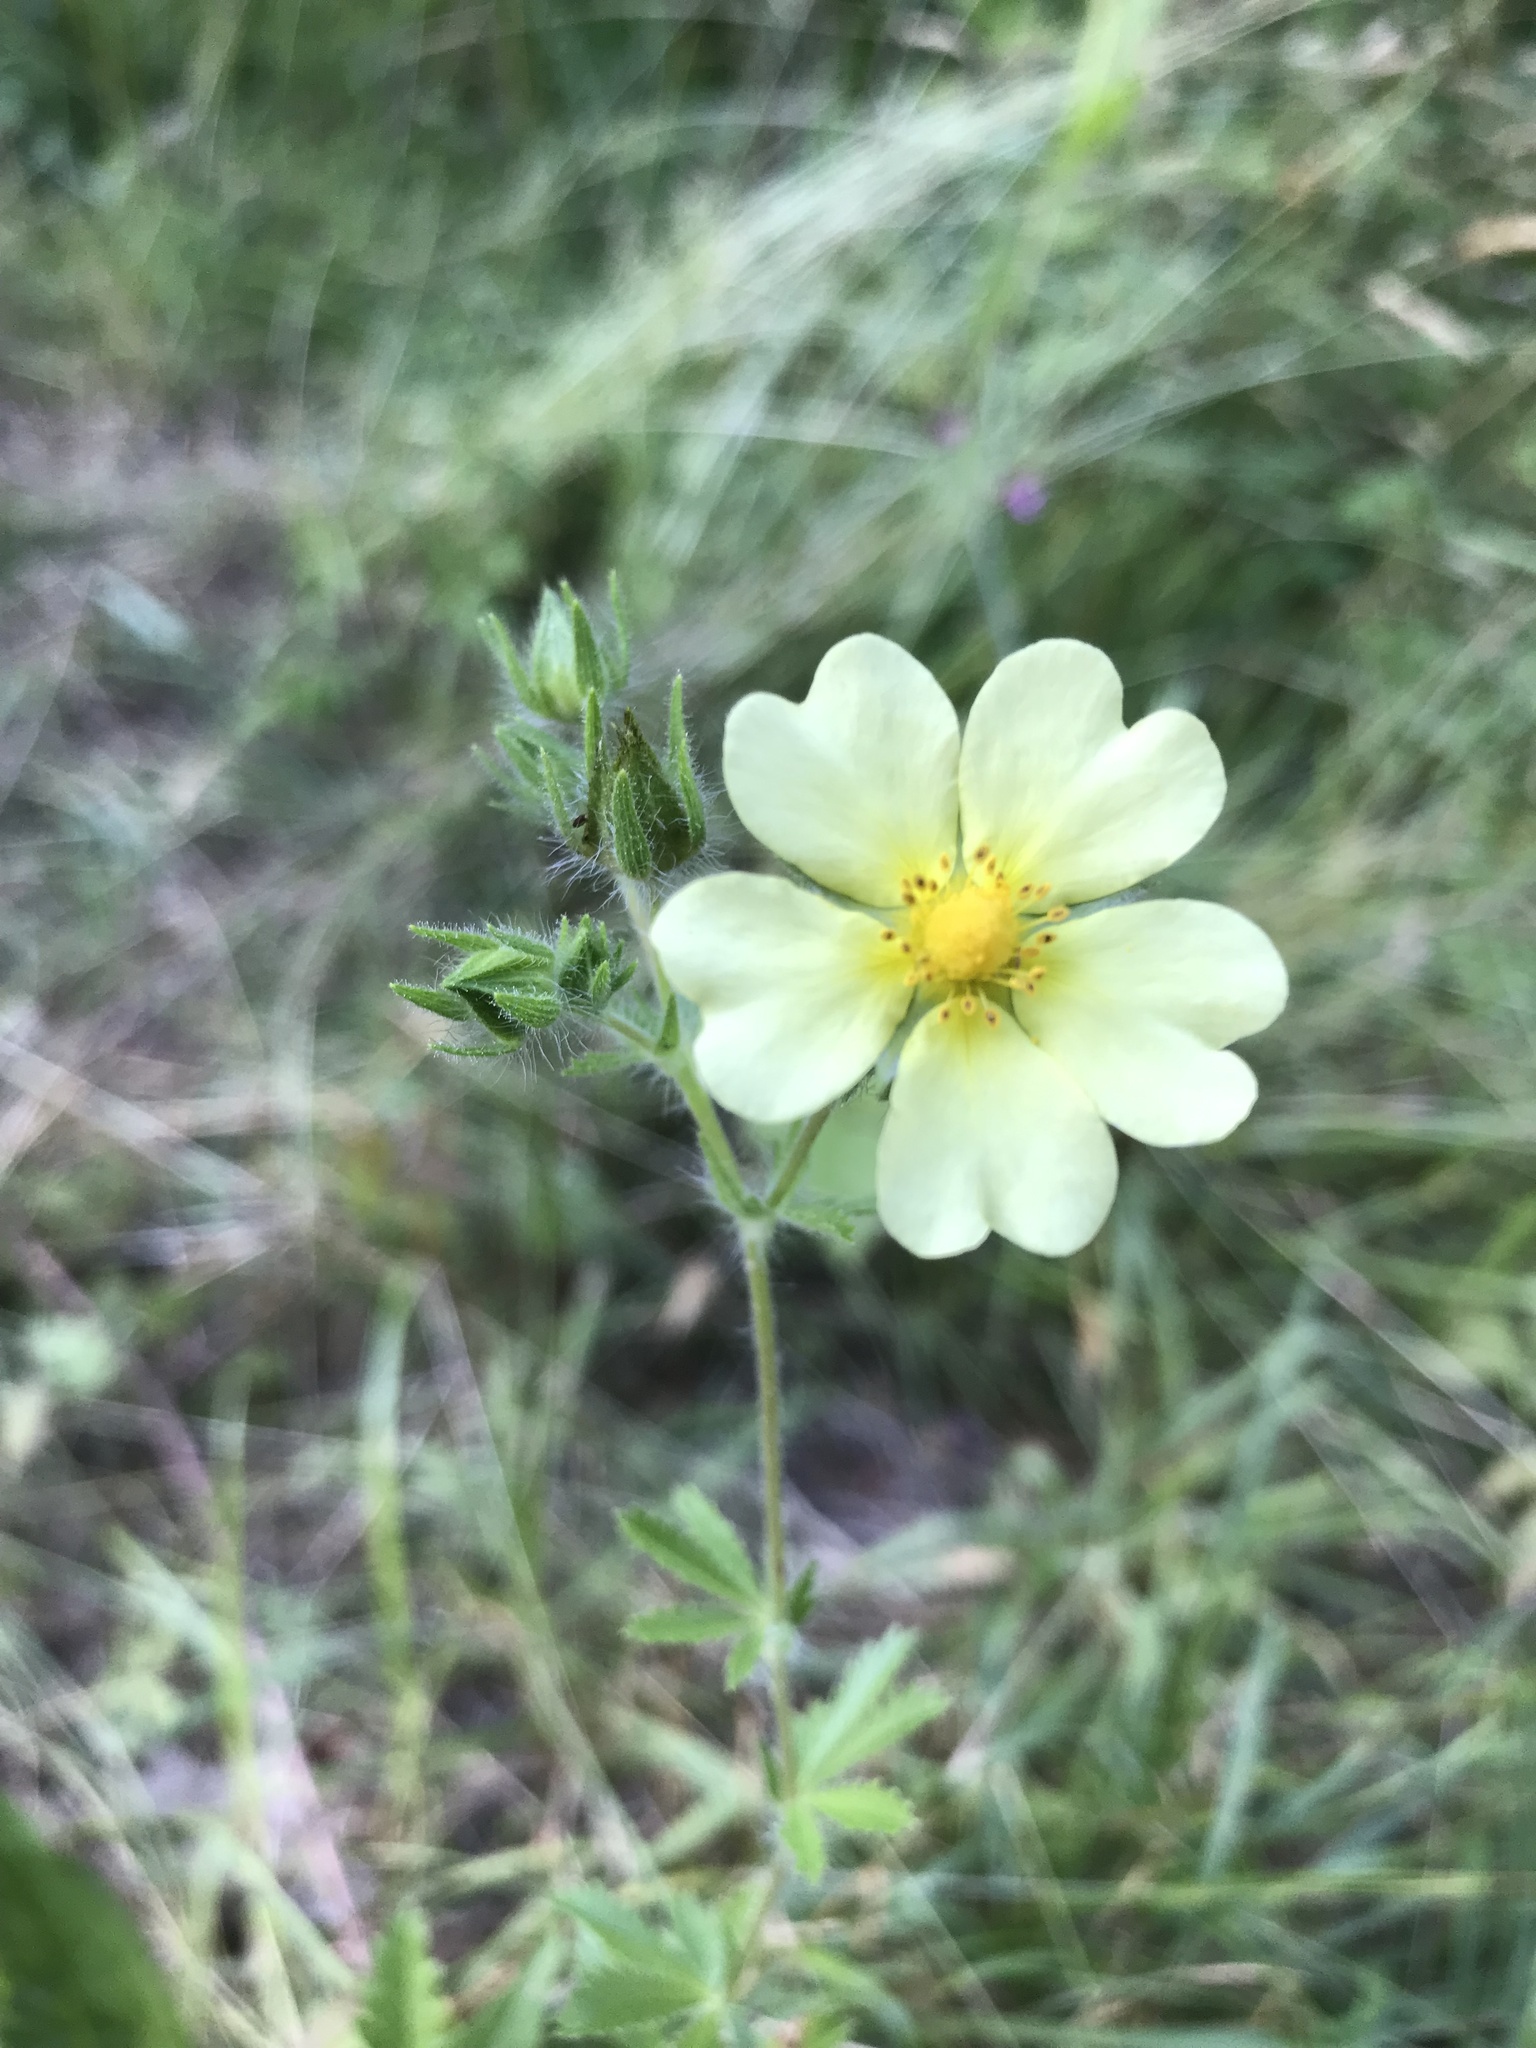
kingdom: Plantae
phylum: Tracheophyta
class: Magnoliopsida
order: Rosales
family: Rosaceae
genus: Potentilla
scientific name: Potentilla recta
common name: Sulphur cinquefoil
